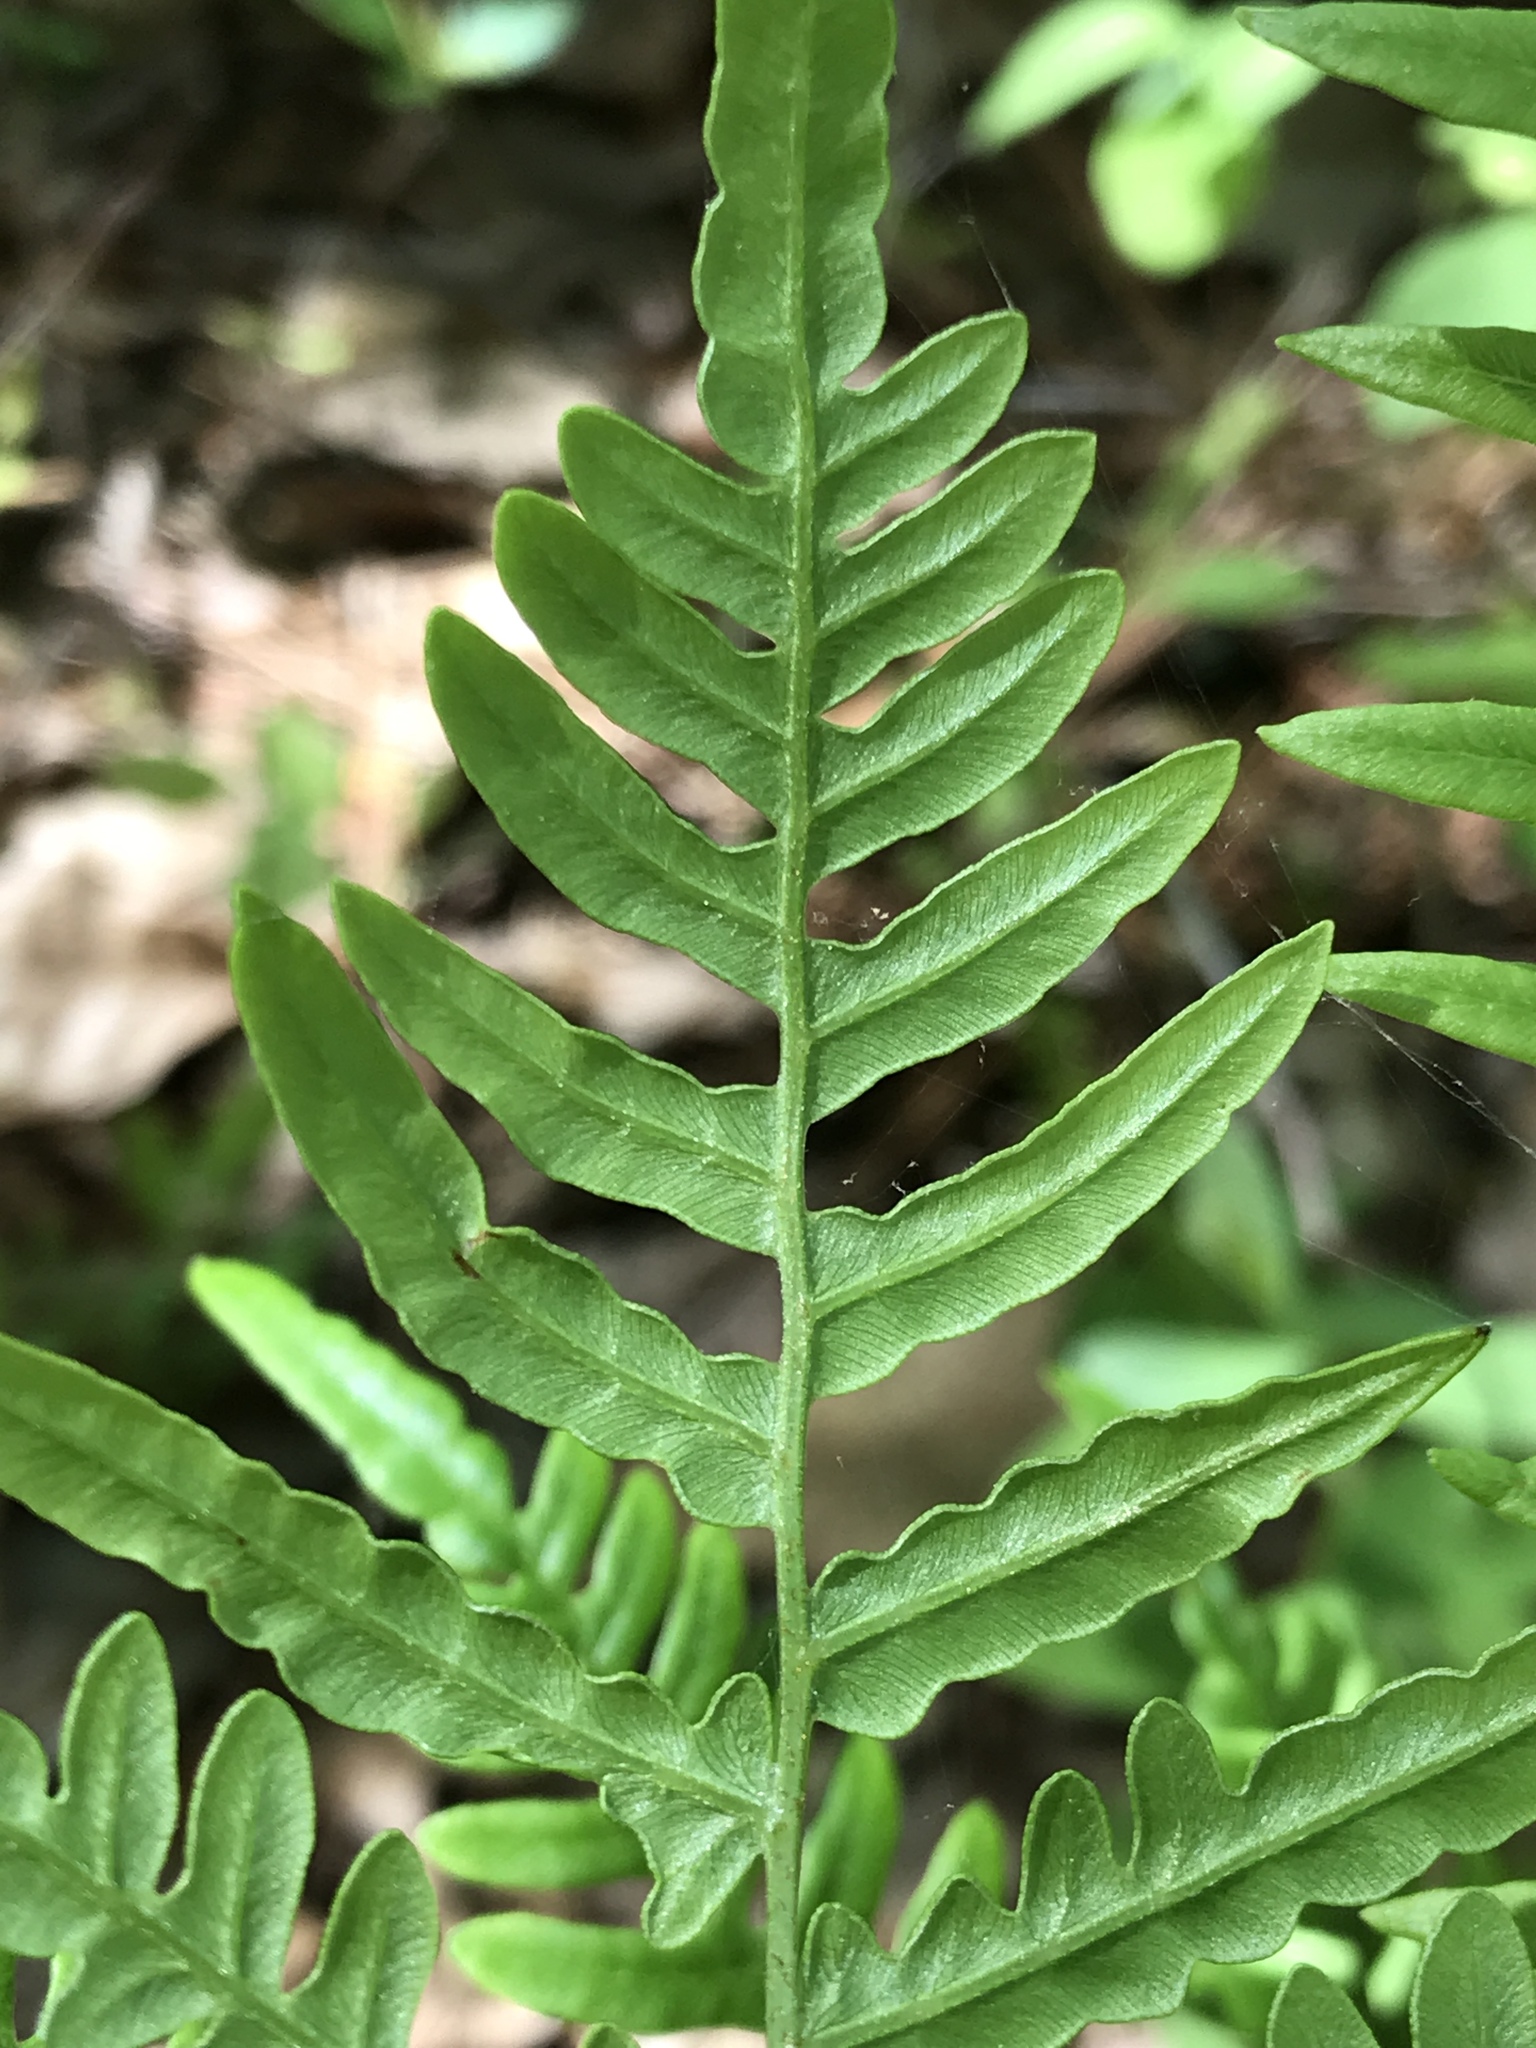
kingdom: Plantae
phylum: Tracheophyta
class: Polypodiopsida
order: Polypodiales
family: Dennstaedtiaceae
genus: Pteridium
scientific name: Pteridium
